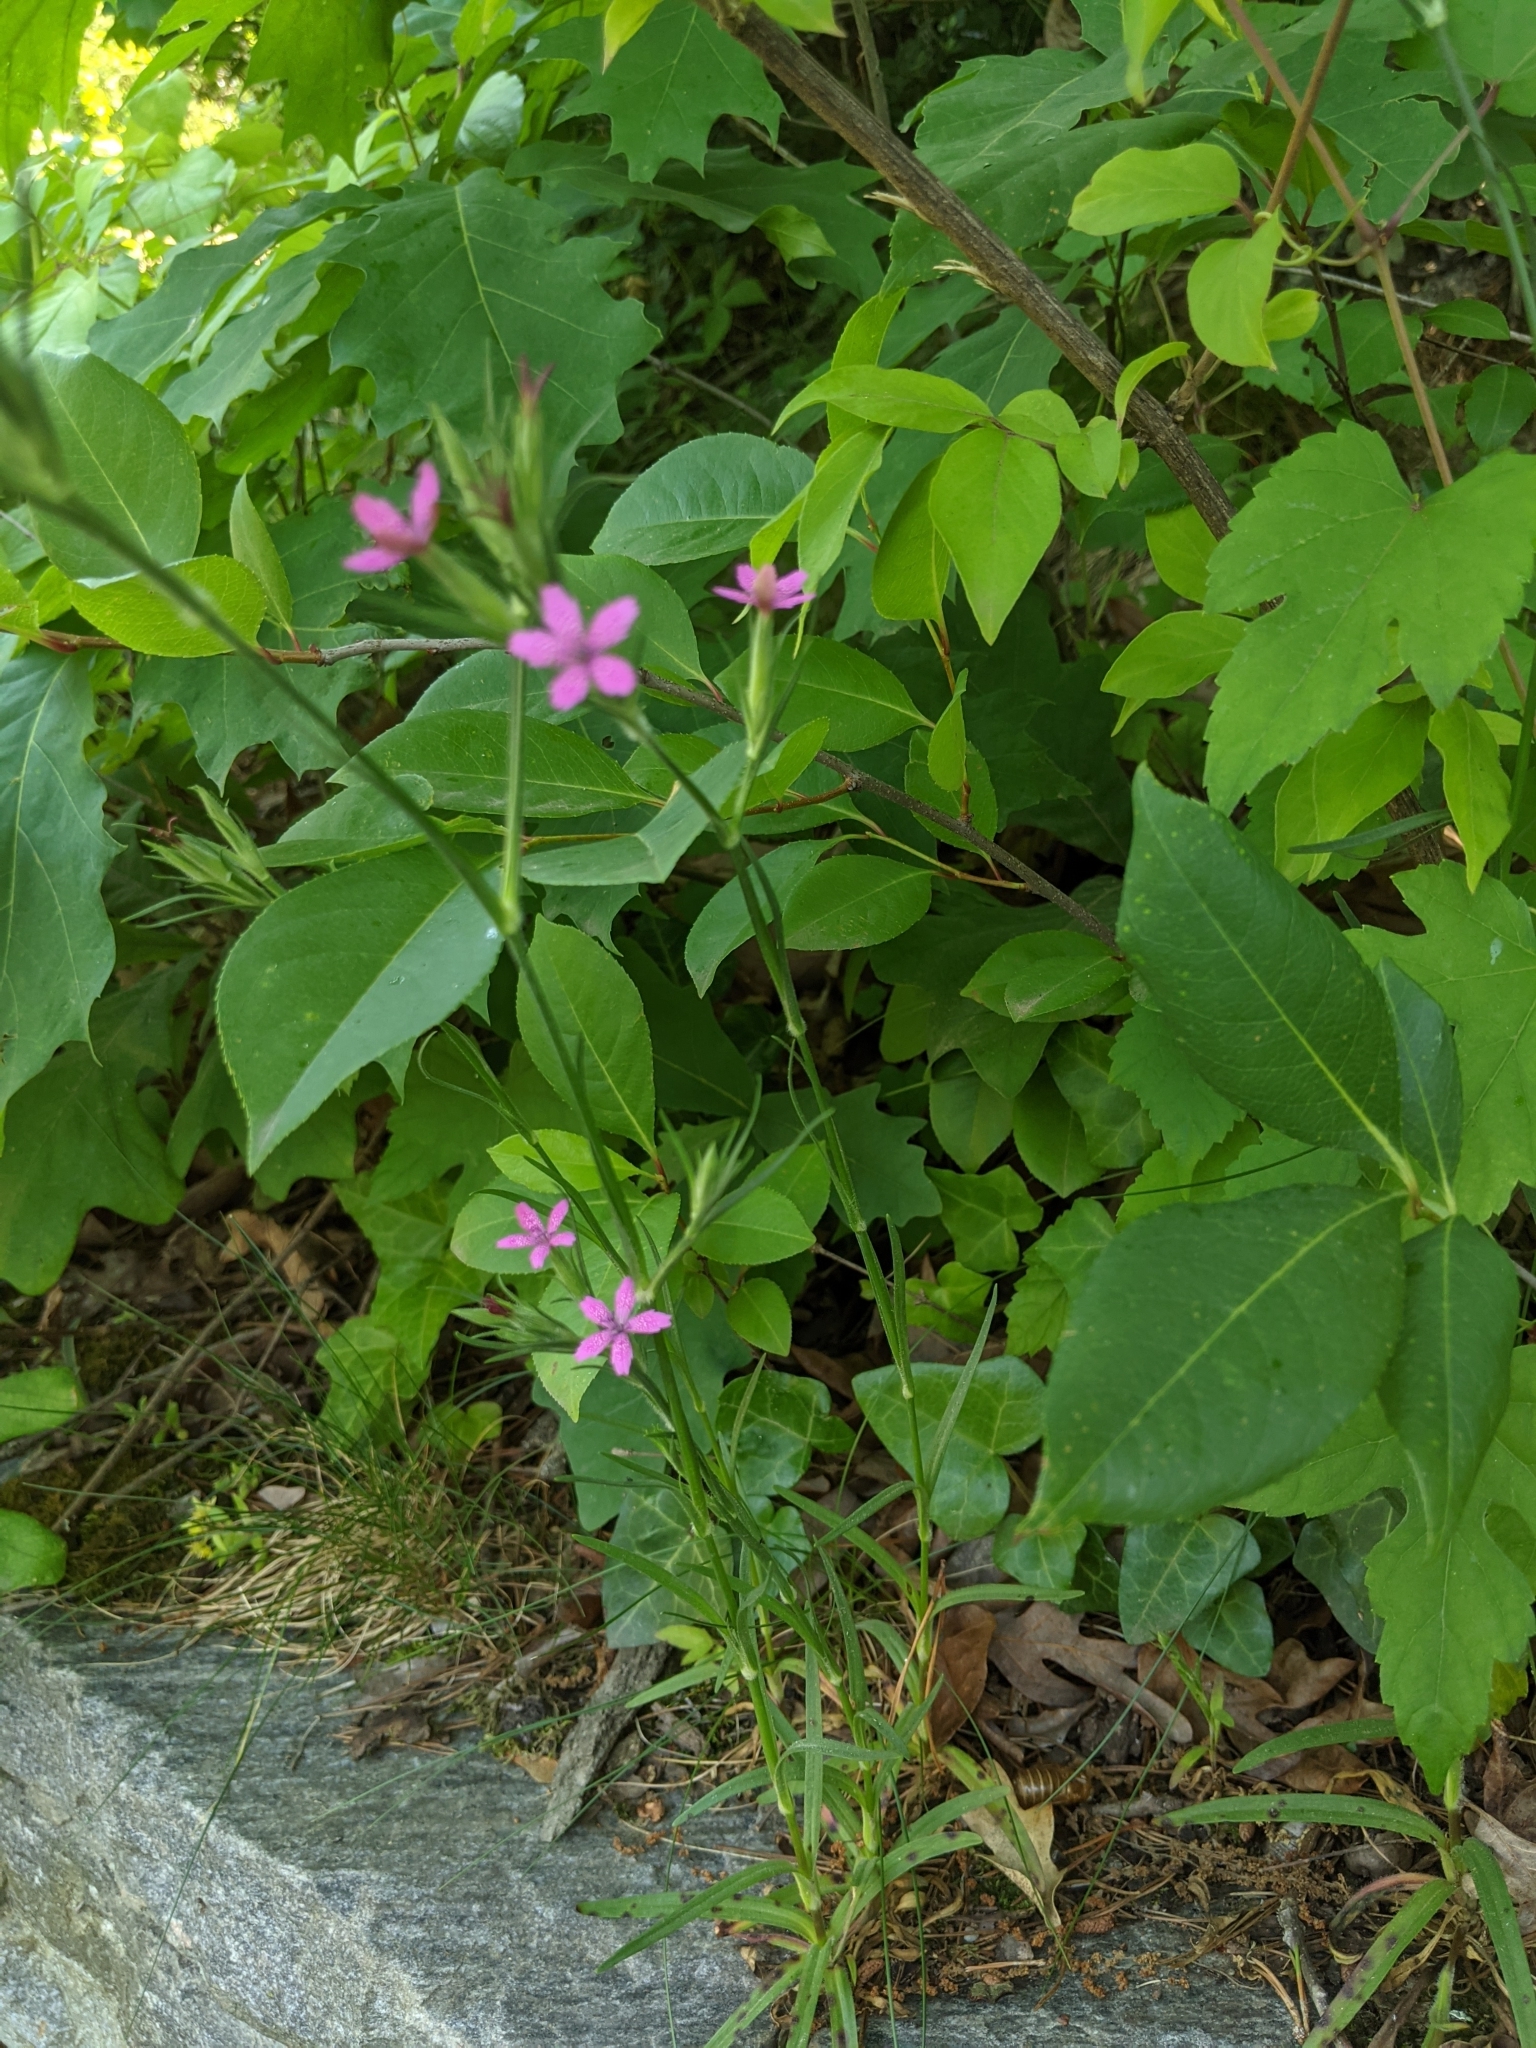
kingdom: Plantae
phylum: Tracheophyta
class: Magnoliopsida
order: Caryophyllales
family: Caryophyllaceae
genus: Dianthus
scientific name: Dianthus armeria
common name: Deptford pink
